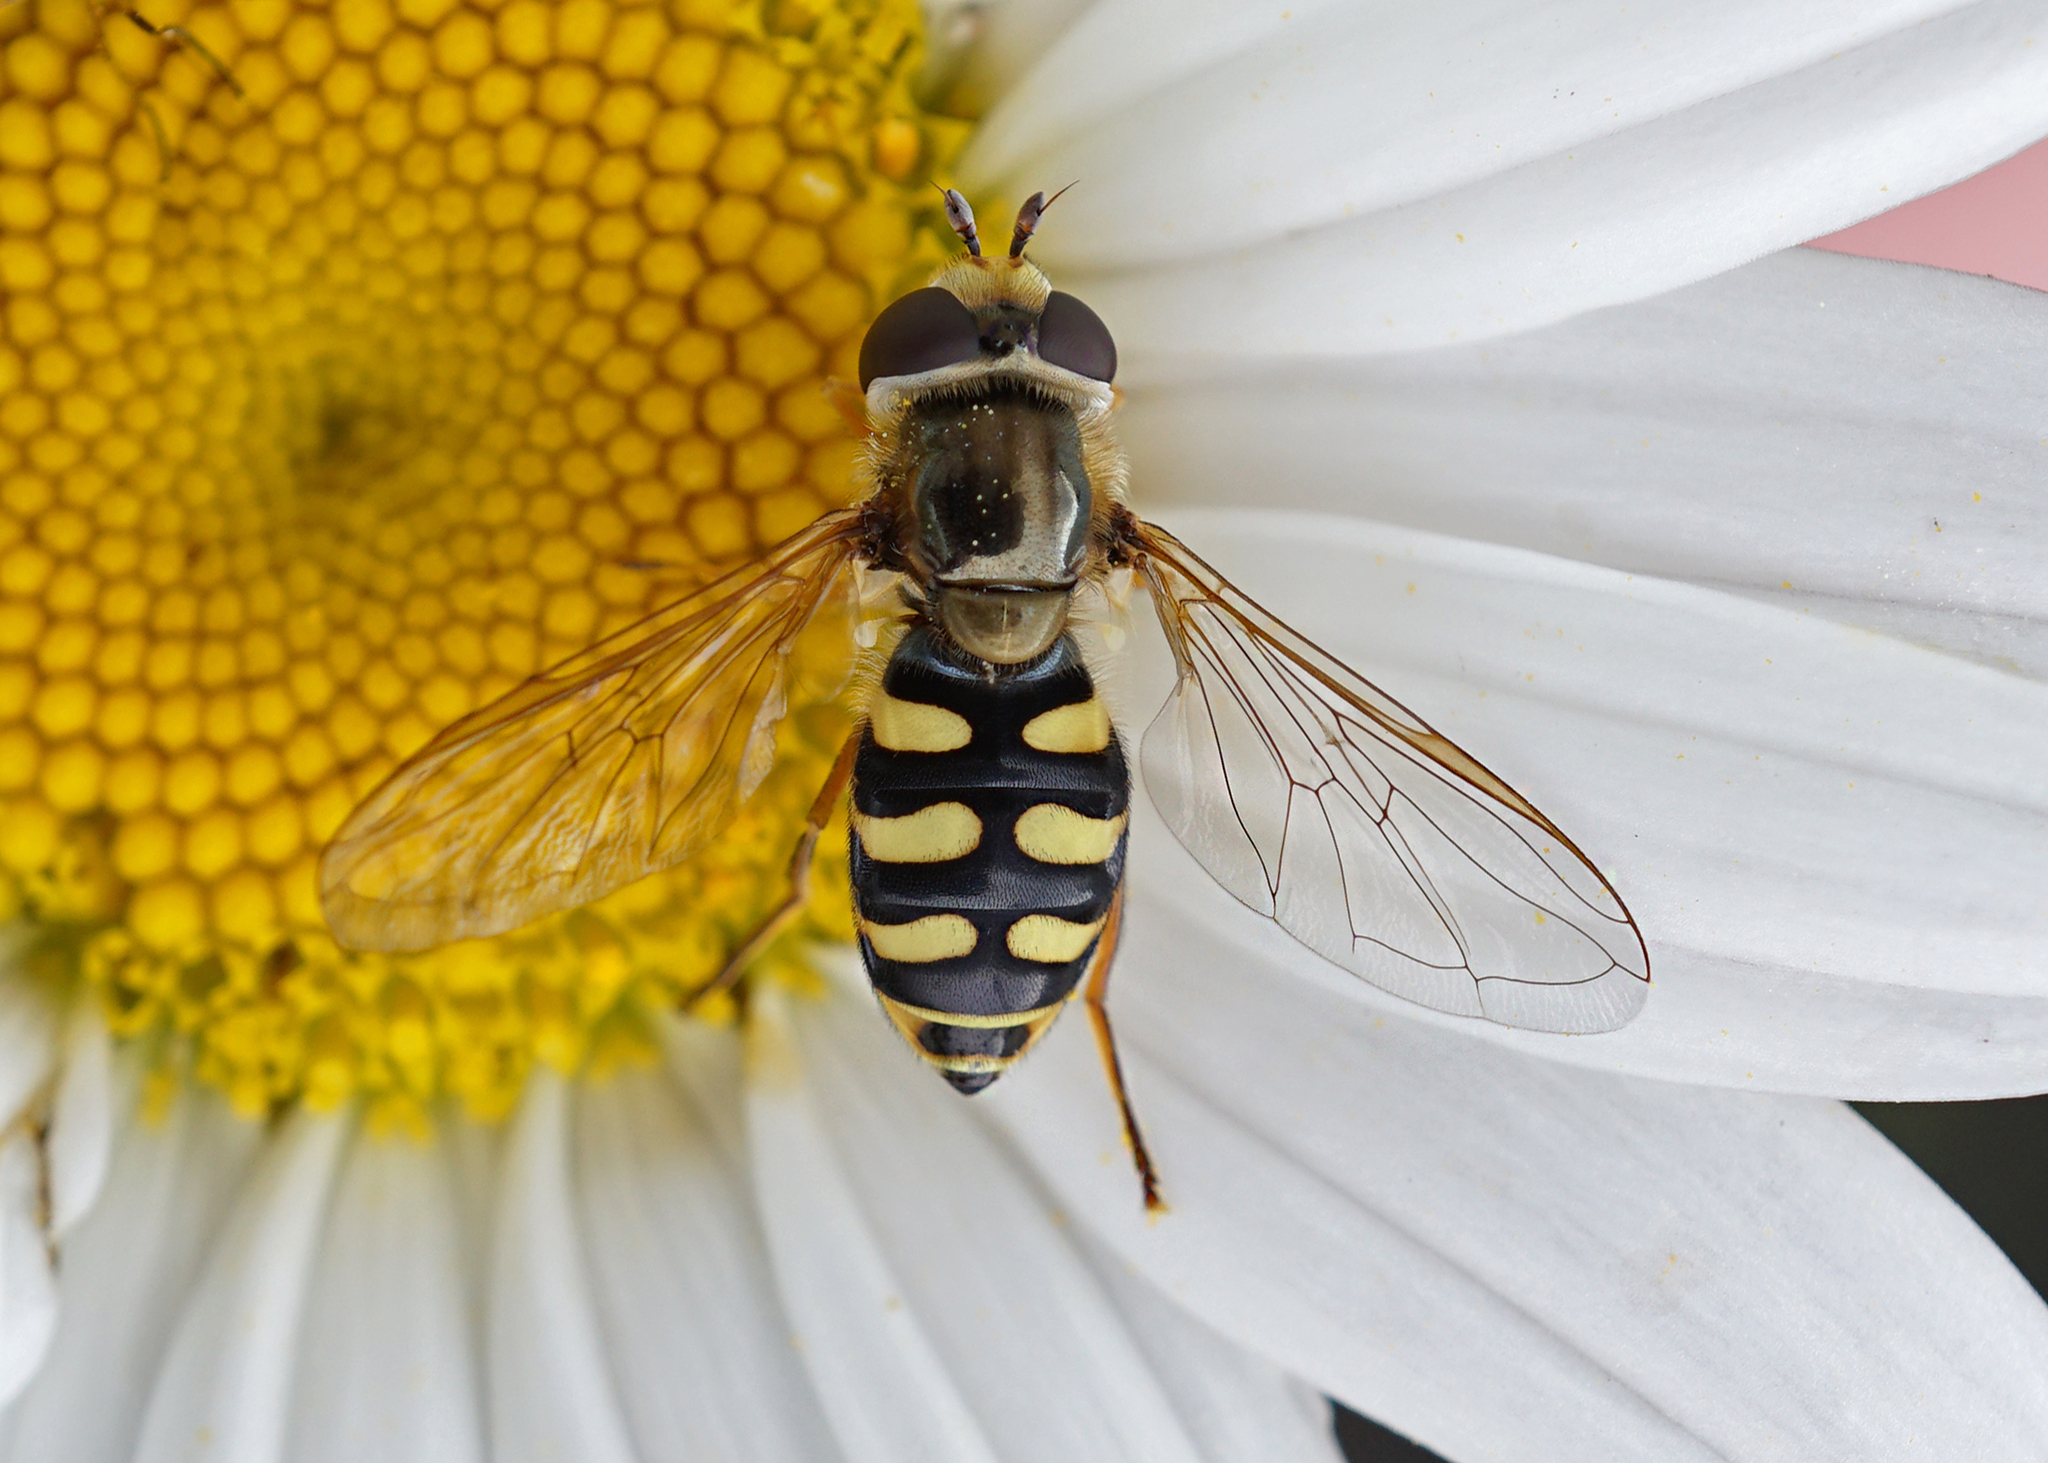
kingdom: Animalia
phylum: Arthropoda
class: Insecta
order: Diptera
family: Syrphidae
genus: Eupeodes
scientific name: Eupeodes corollae
